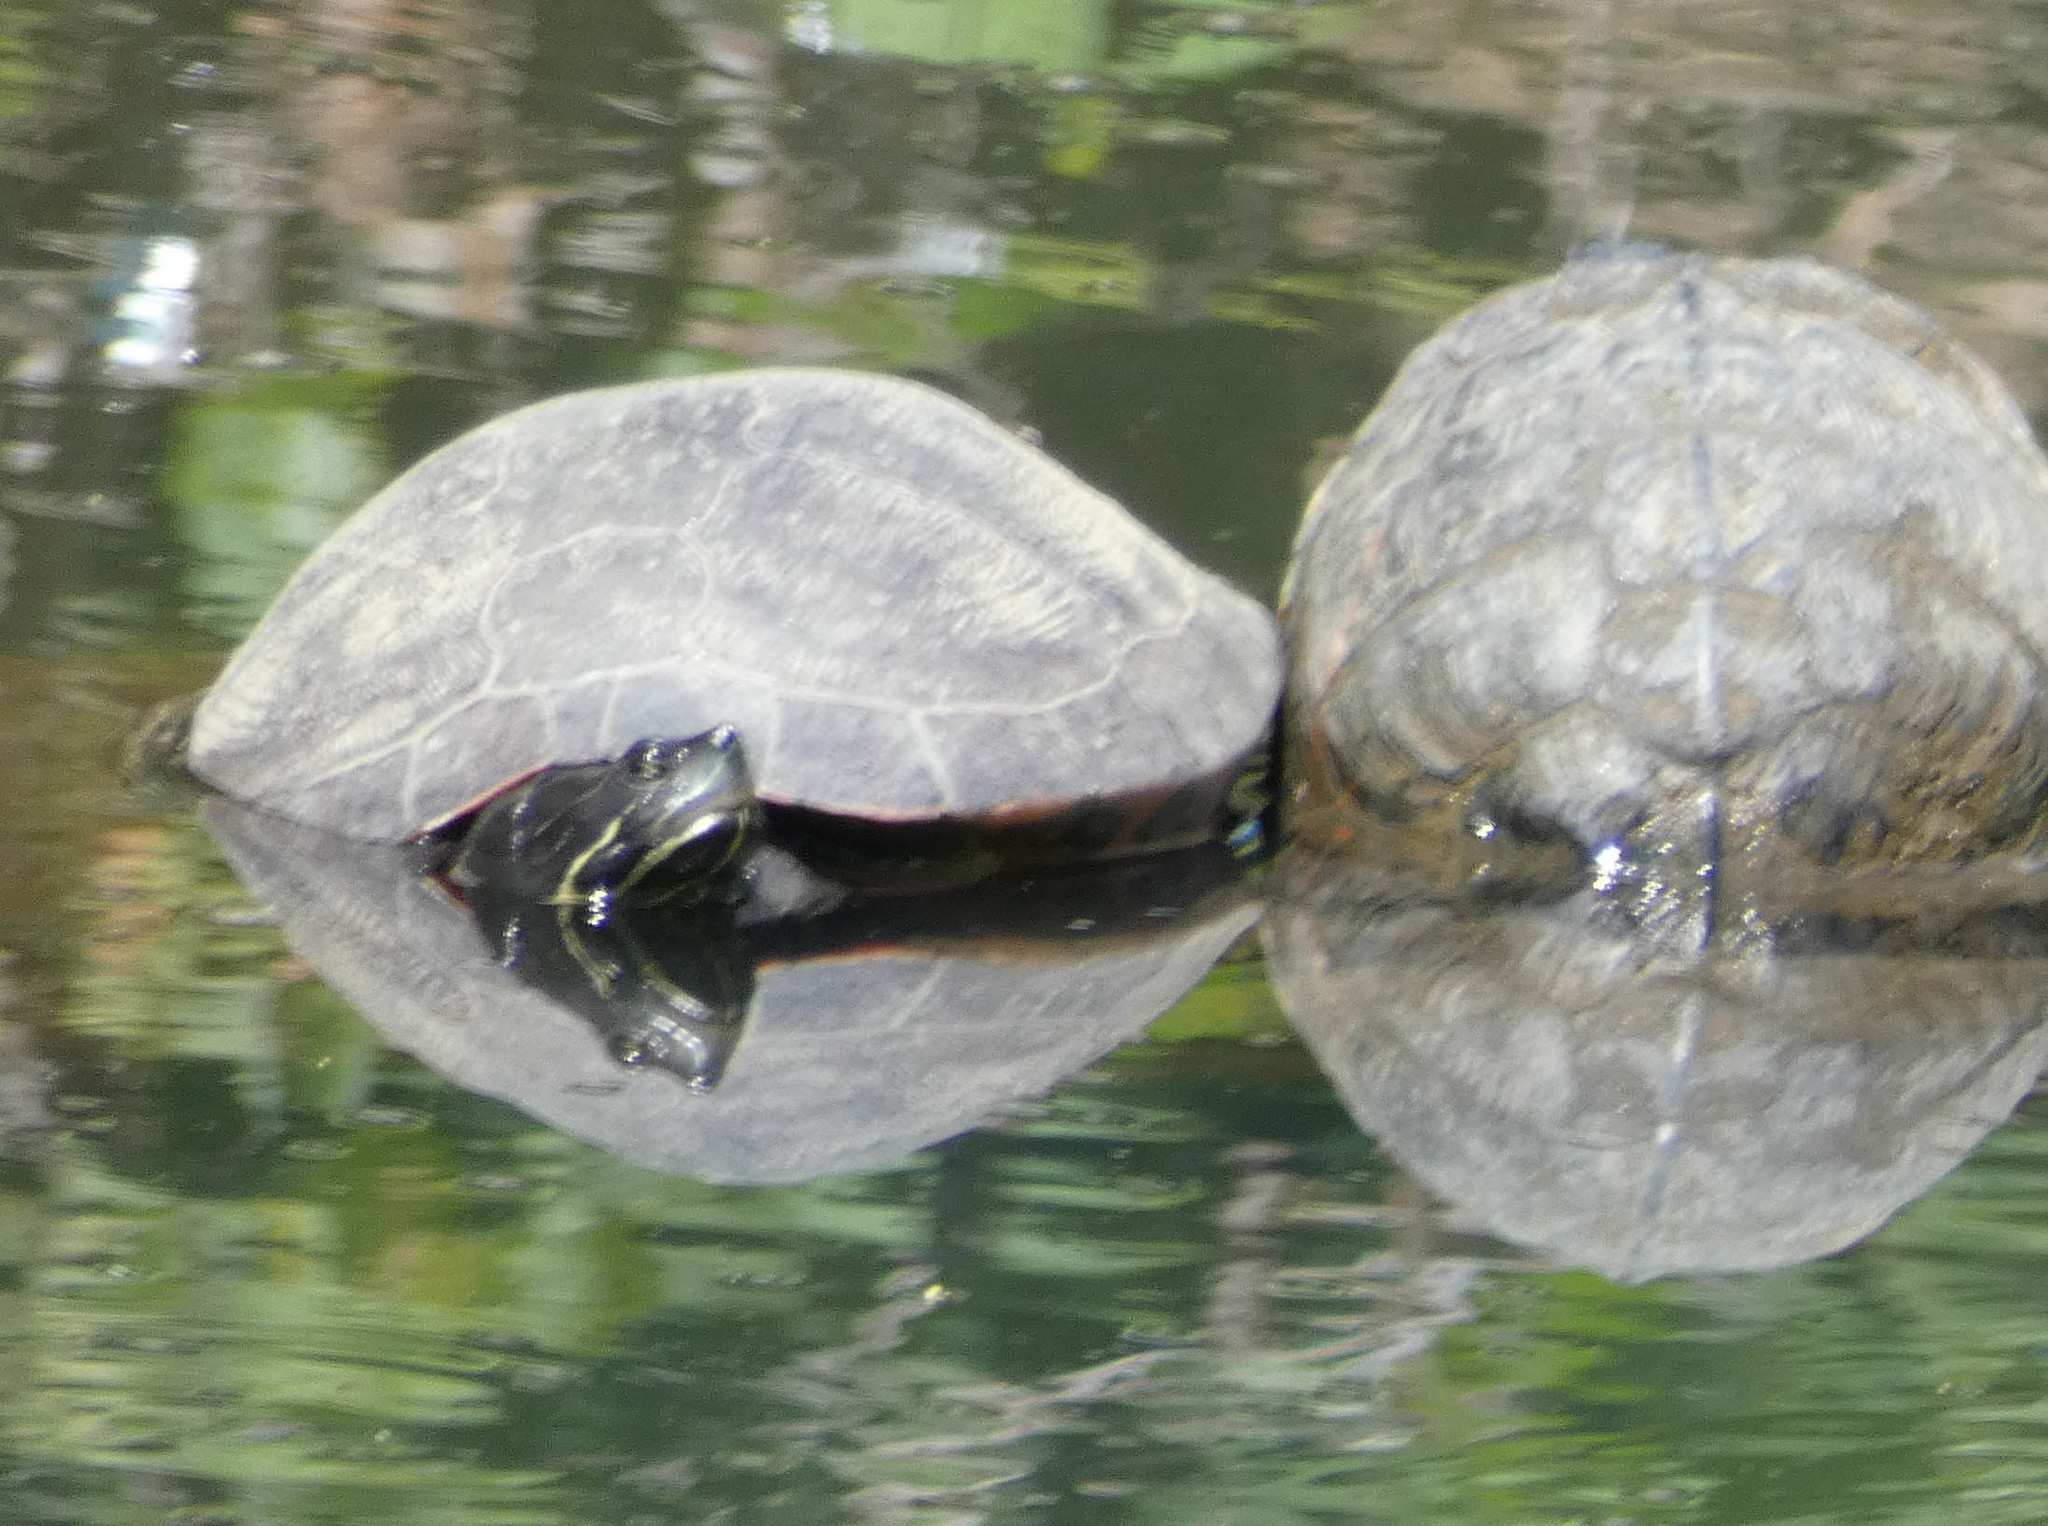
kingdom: Animalia
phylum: Chordata
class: Testudines
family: Emydidae
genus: Pseudemys
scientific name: Pseudemys rubriventris
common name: American red-bellied turtle
